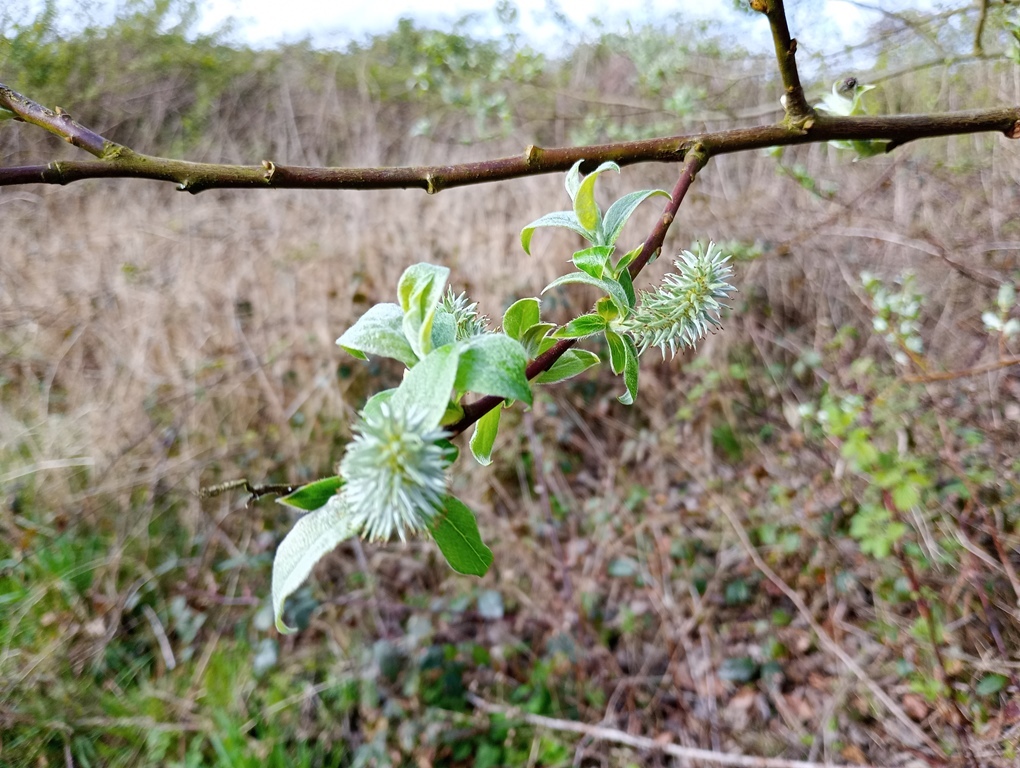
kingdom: Plantae
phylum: Tracheophyta
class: Magnoliopsida
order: Malpighiales
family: Salicaceae
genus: Salix
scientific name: Salix caprea
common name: Goat willow
